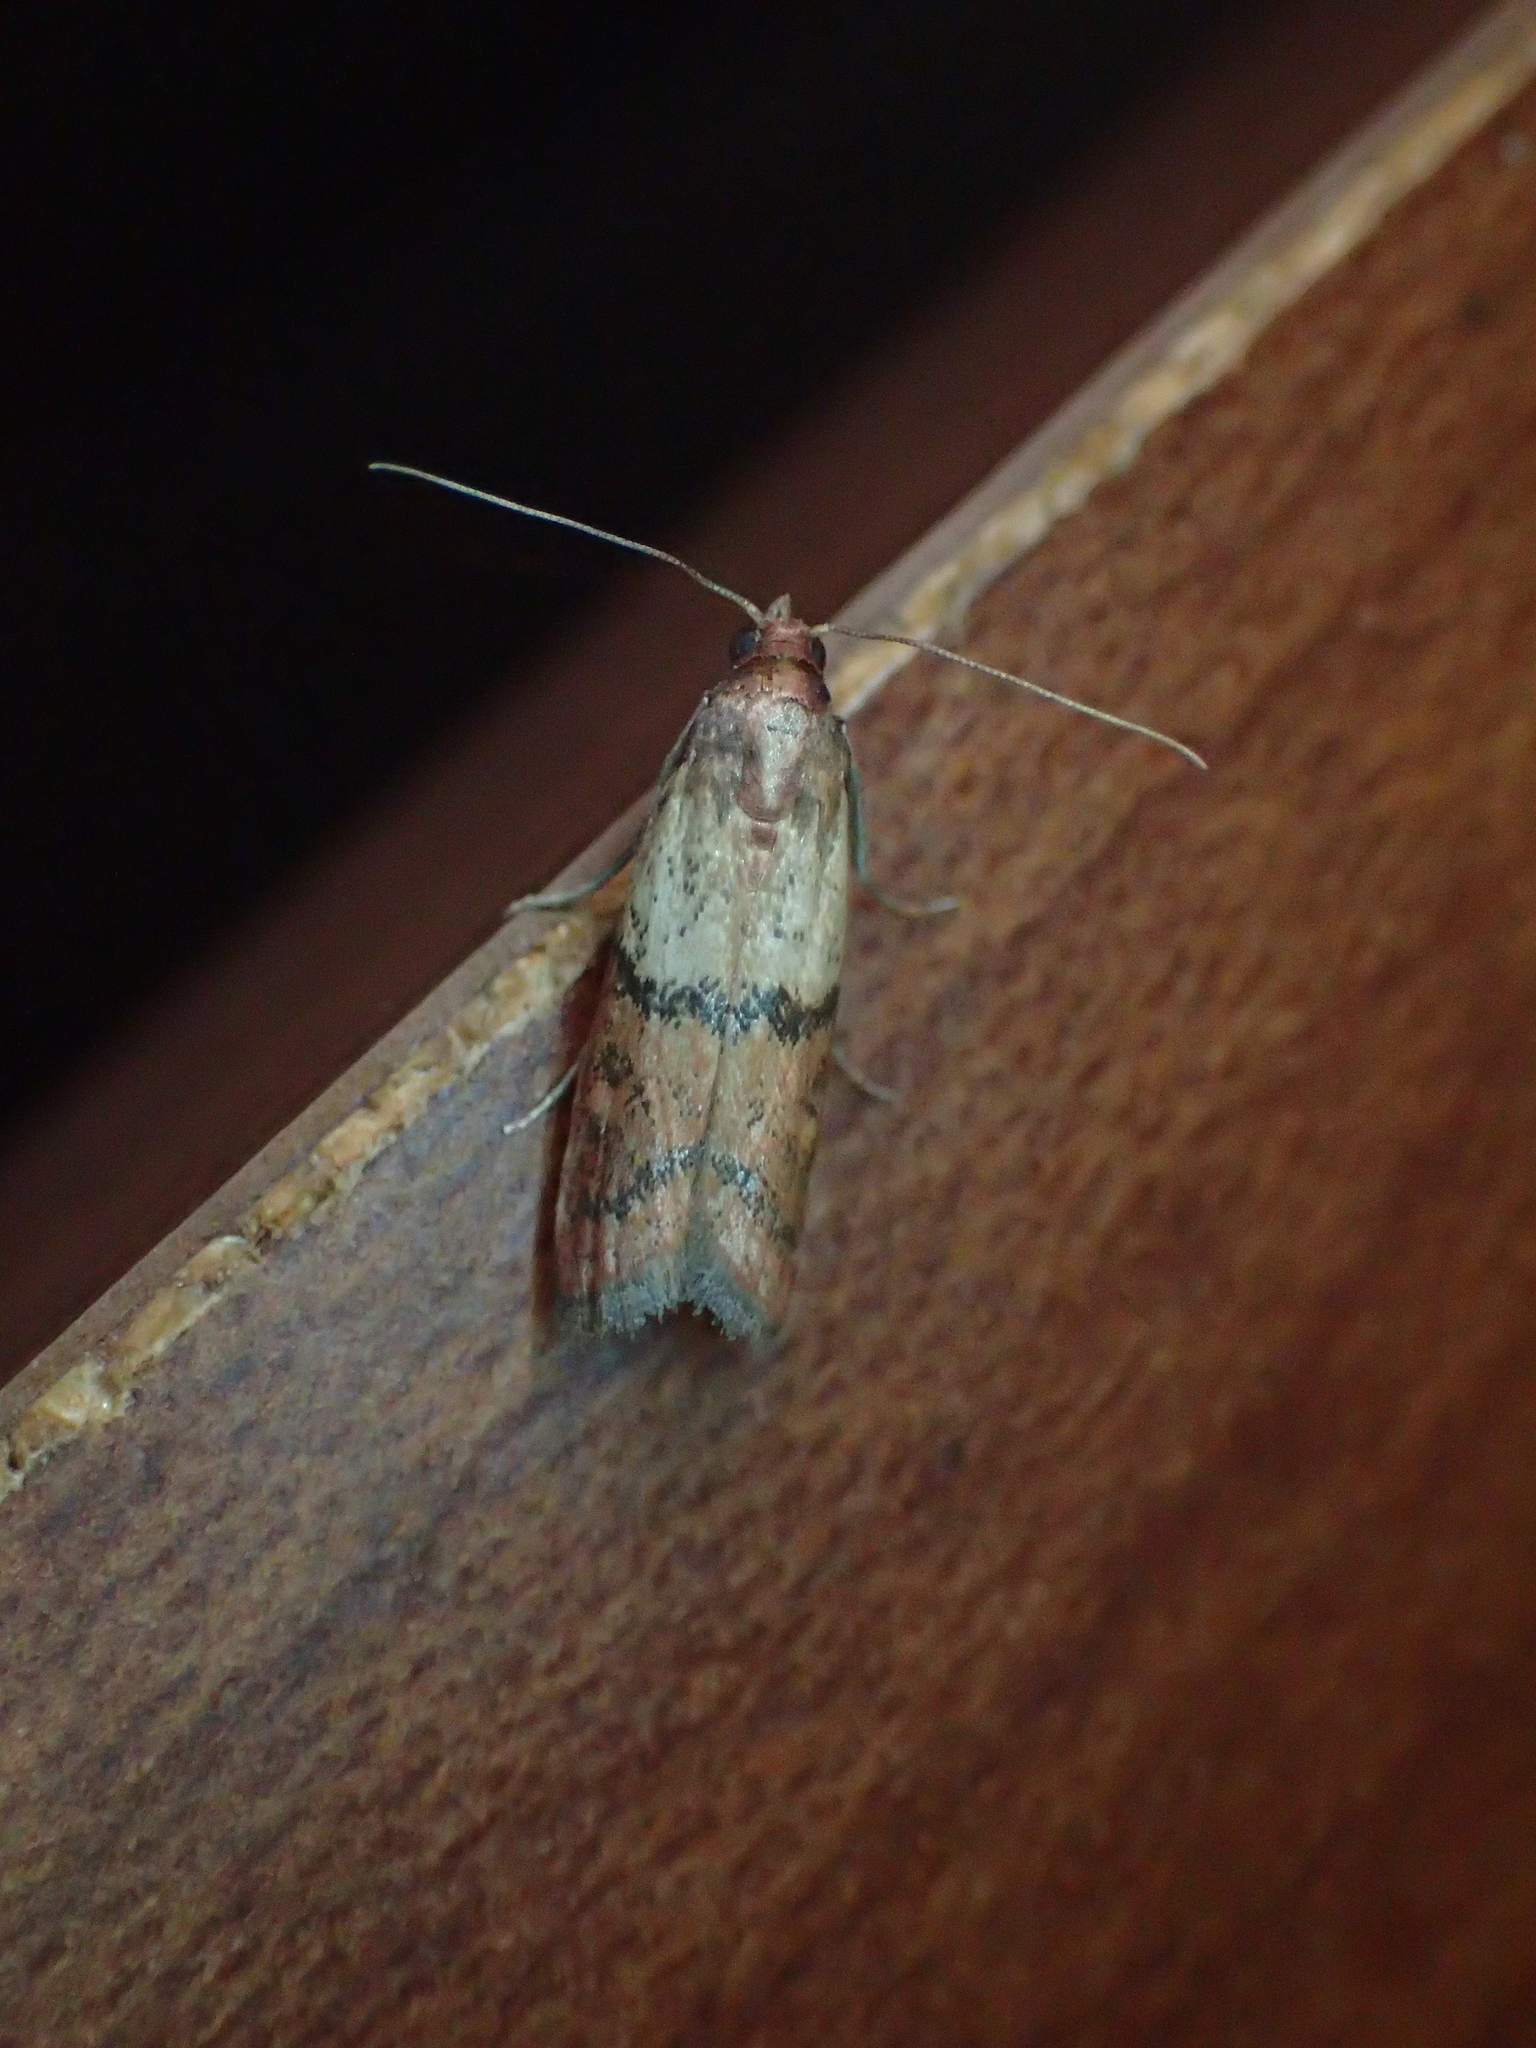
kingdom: Animalia
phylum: Arthropoda
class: Insecta
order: Lepidoptera
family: Pyralidae
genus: Plodia
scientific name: Plodia interpunctella
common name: Indian meal moth
